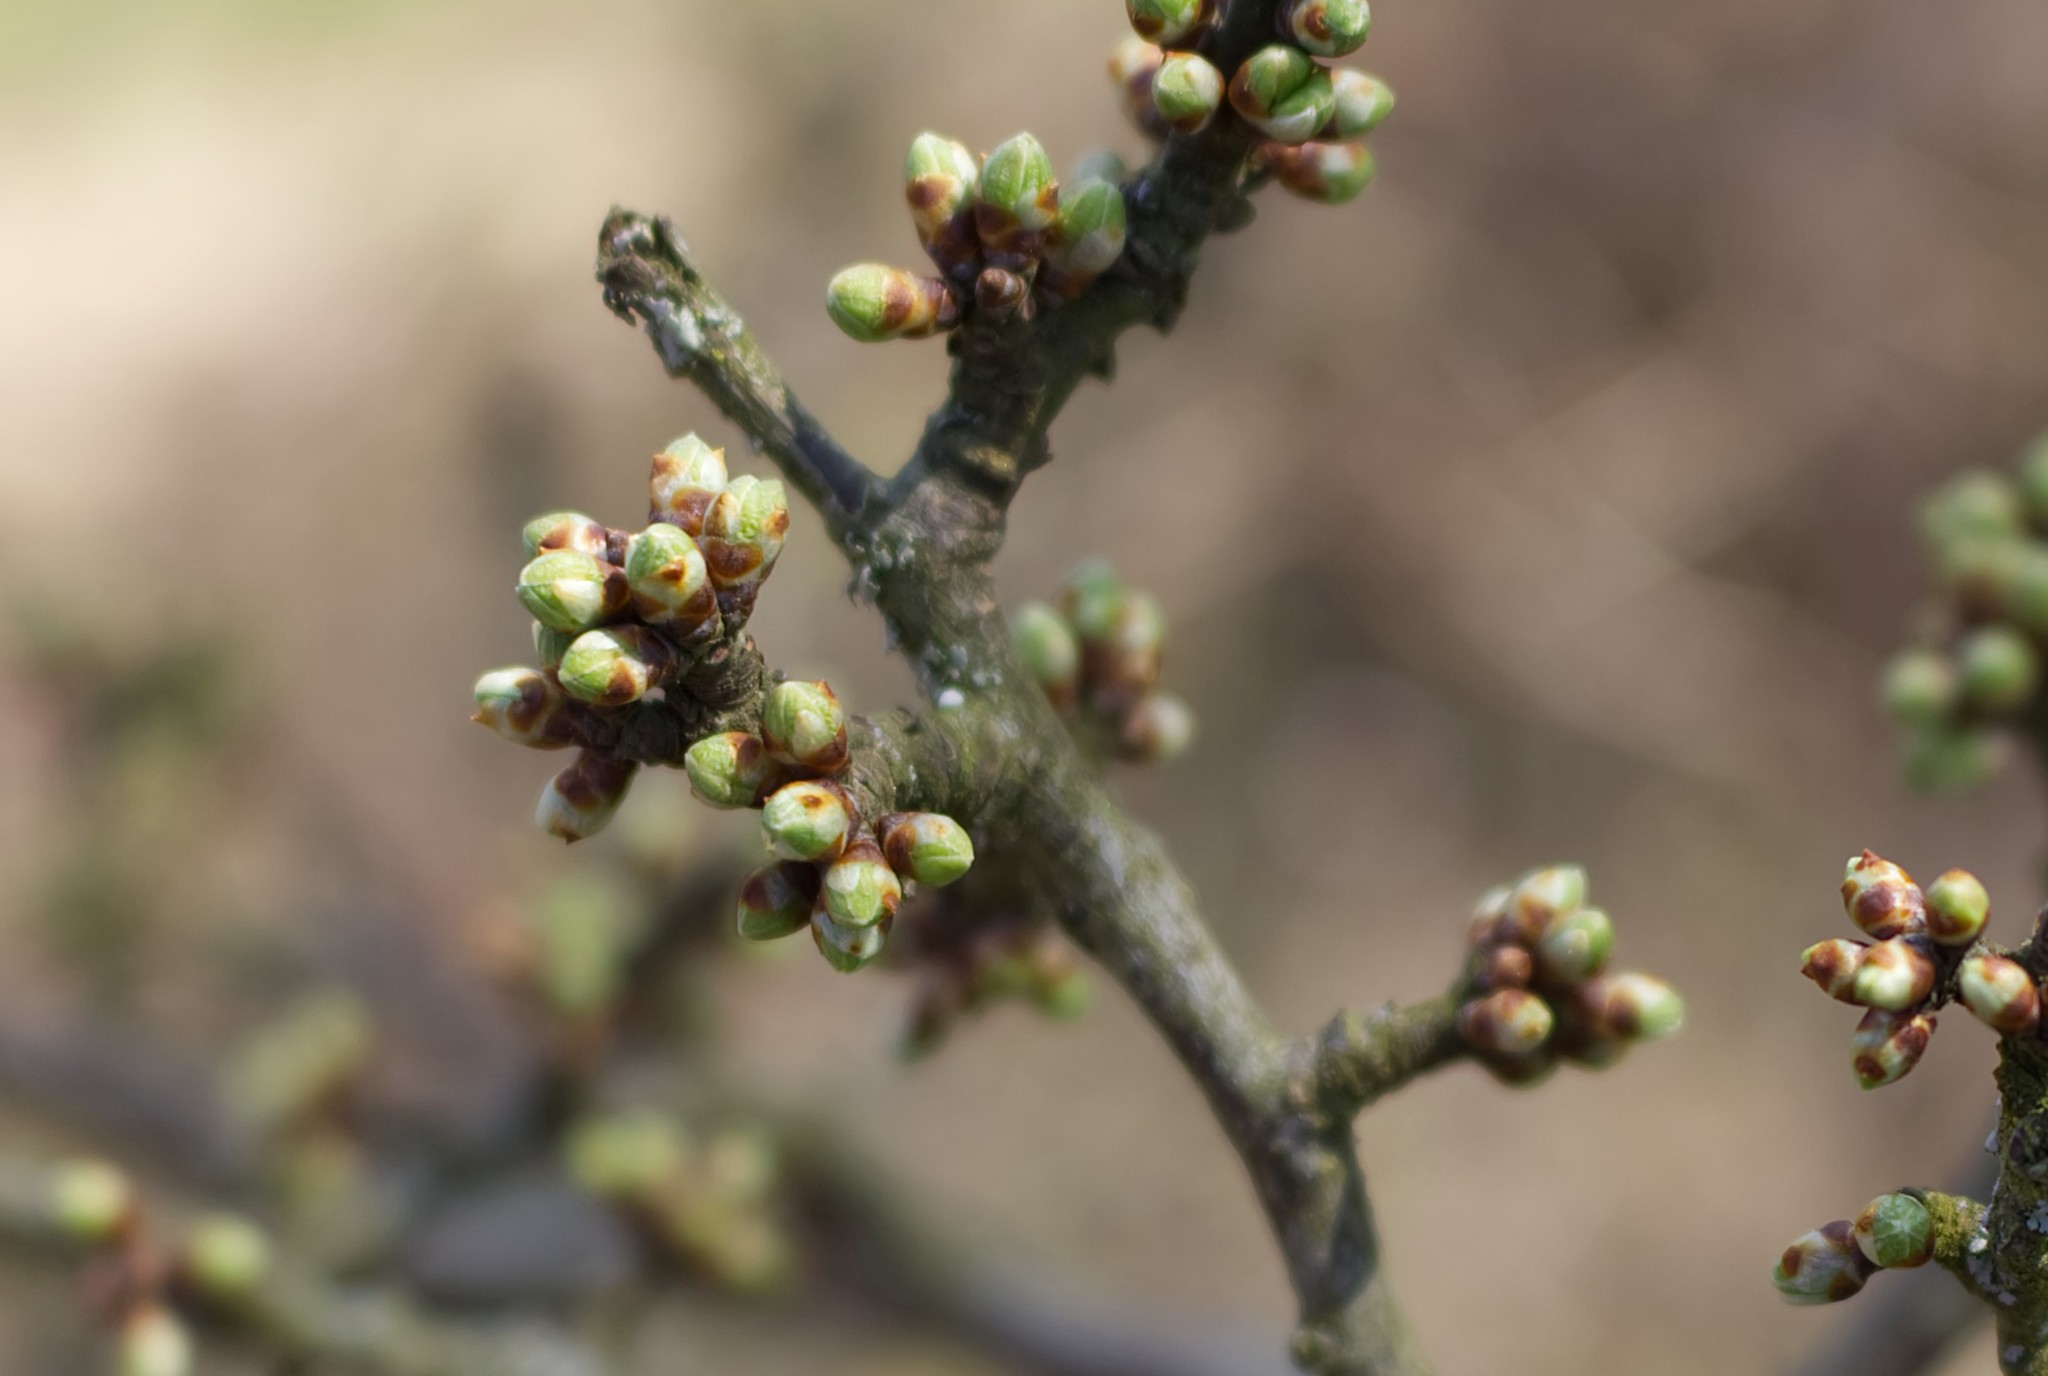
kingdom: Animalia
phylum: Arthropoda
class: Insecta
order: Lepidoptera
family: Lycaenidae
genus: Thecla
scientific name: Thecla betulae
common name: Brown hairstreak
